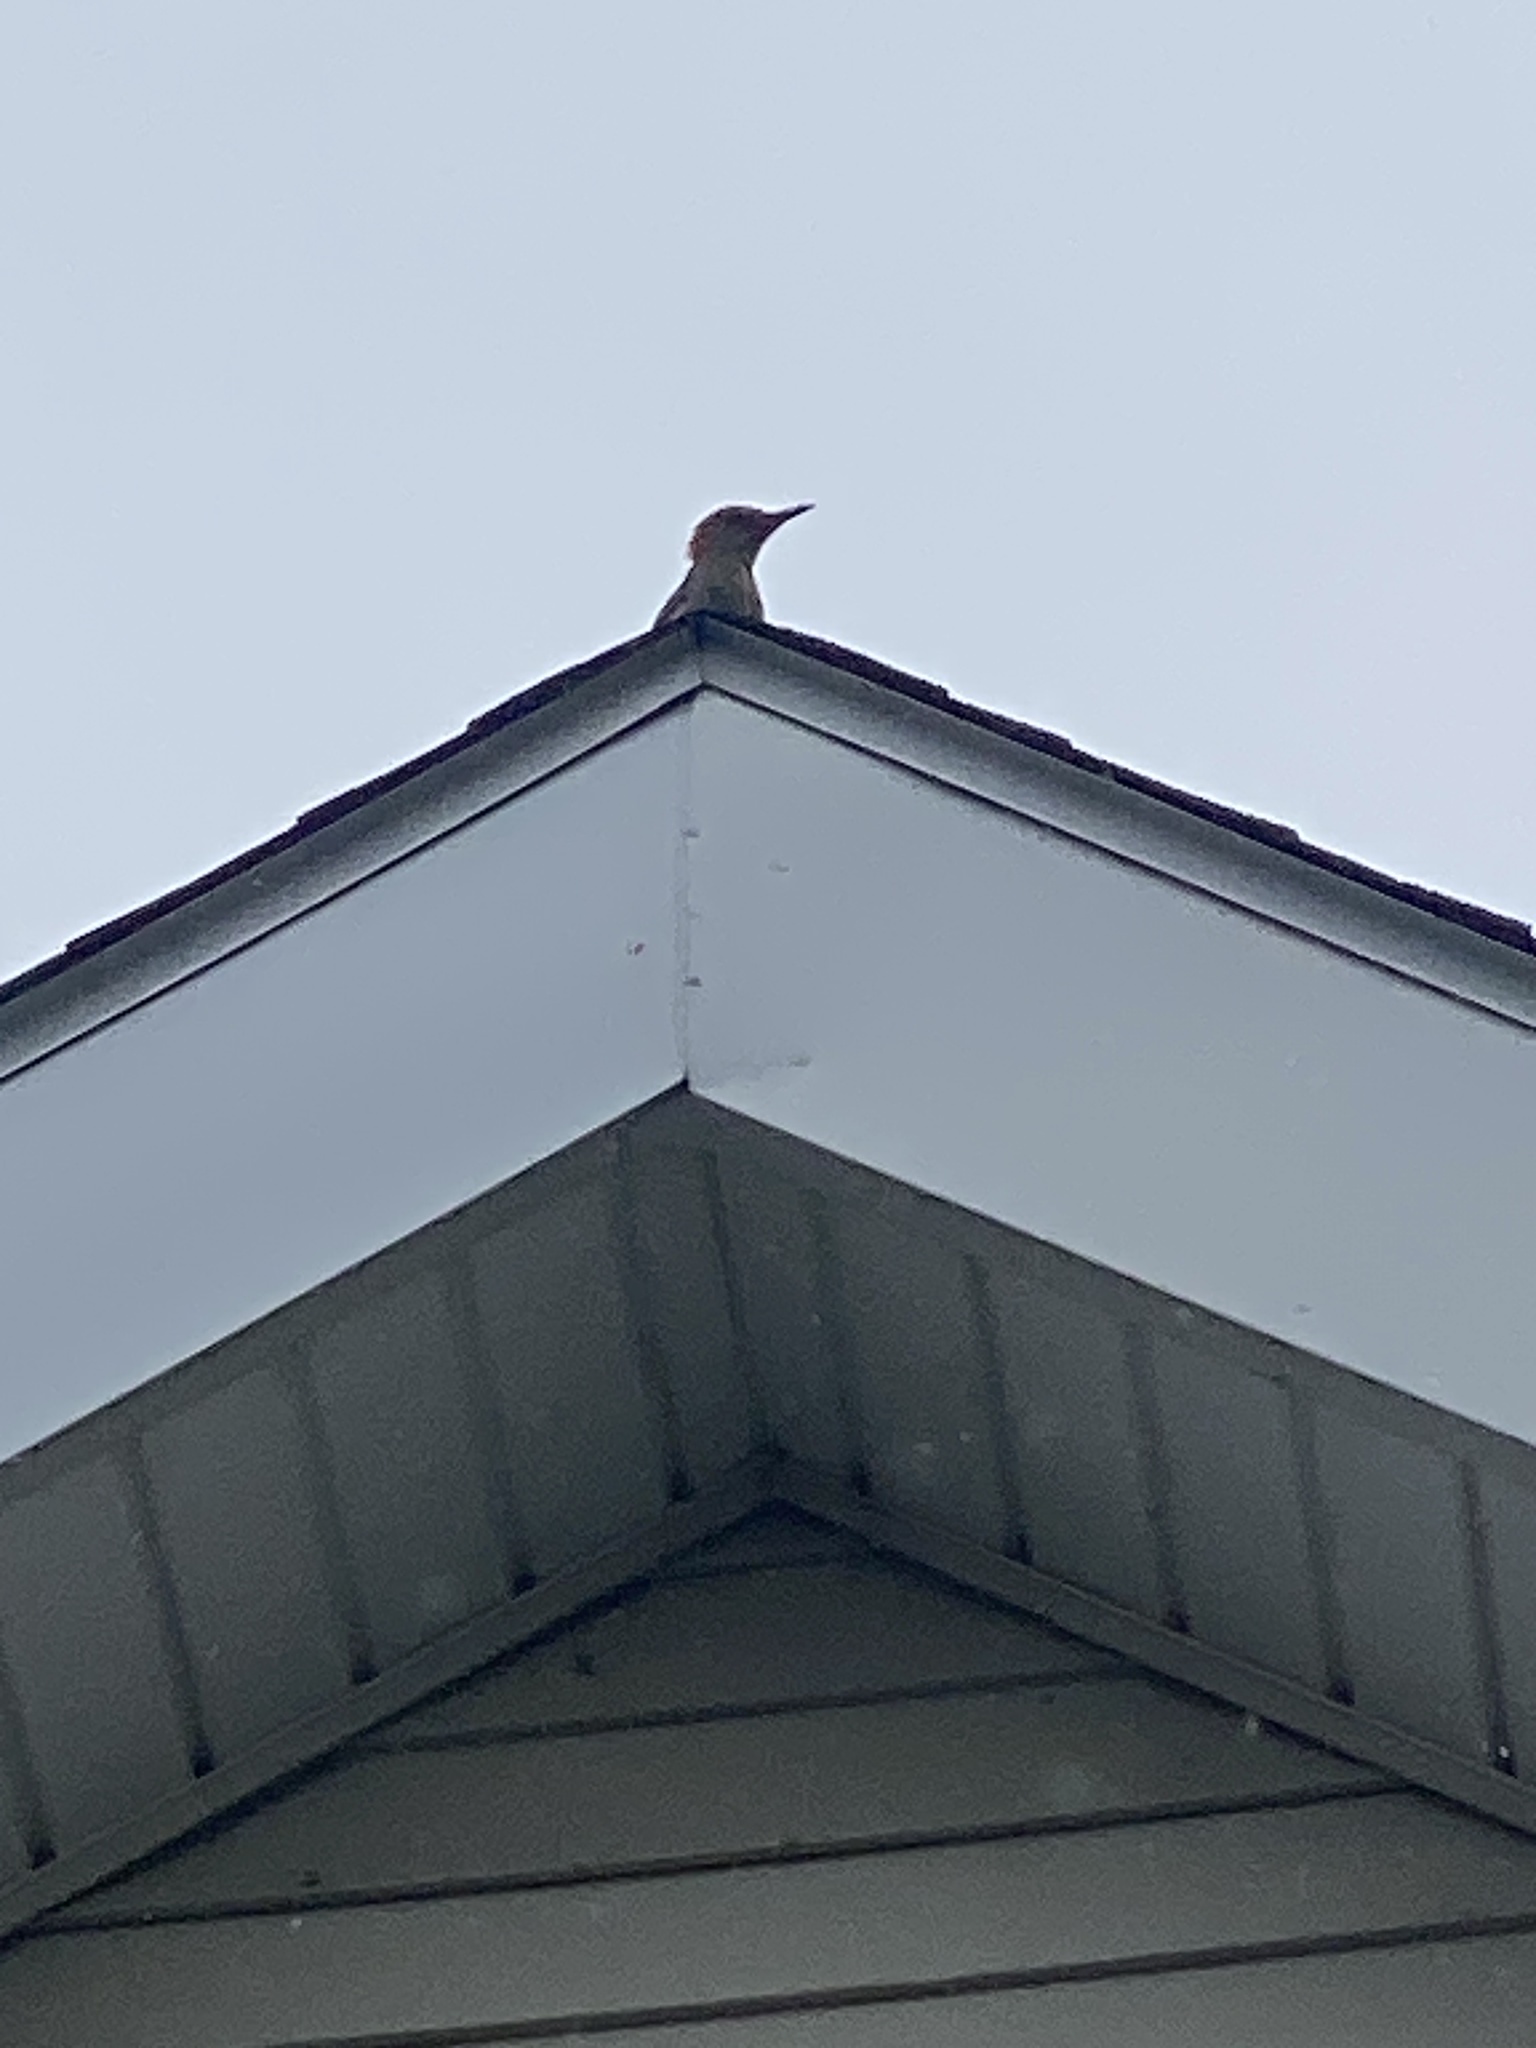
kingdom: Animalia
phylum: Chordata
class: Aves
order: Piciformes
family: Picidae
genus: Melanerpes
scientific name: Melanerpes carolinus
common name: Red-bellied woodpecker
